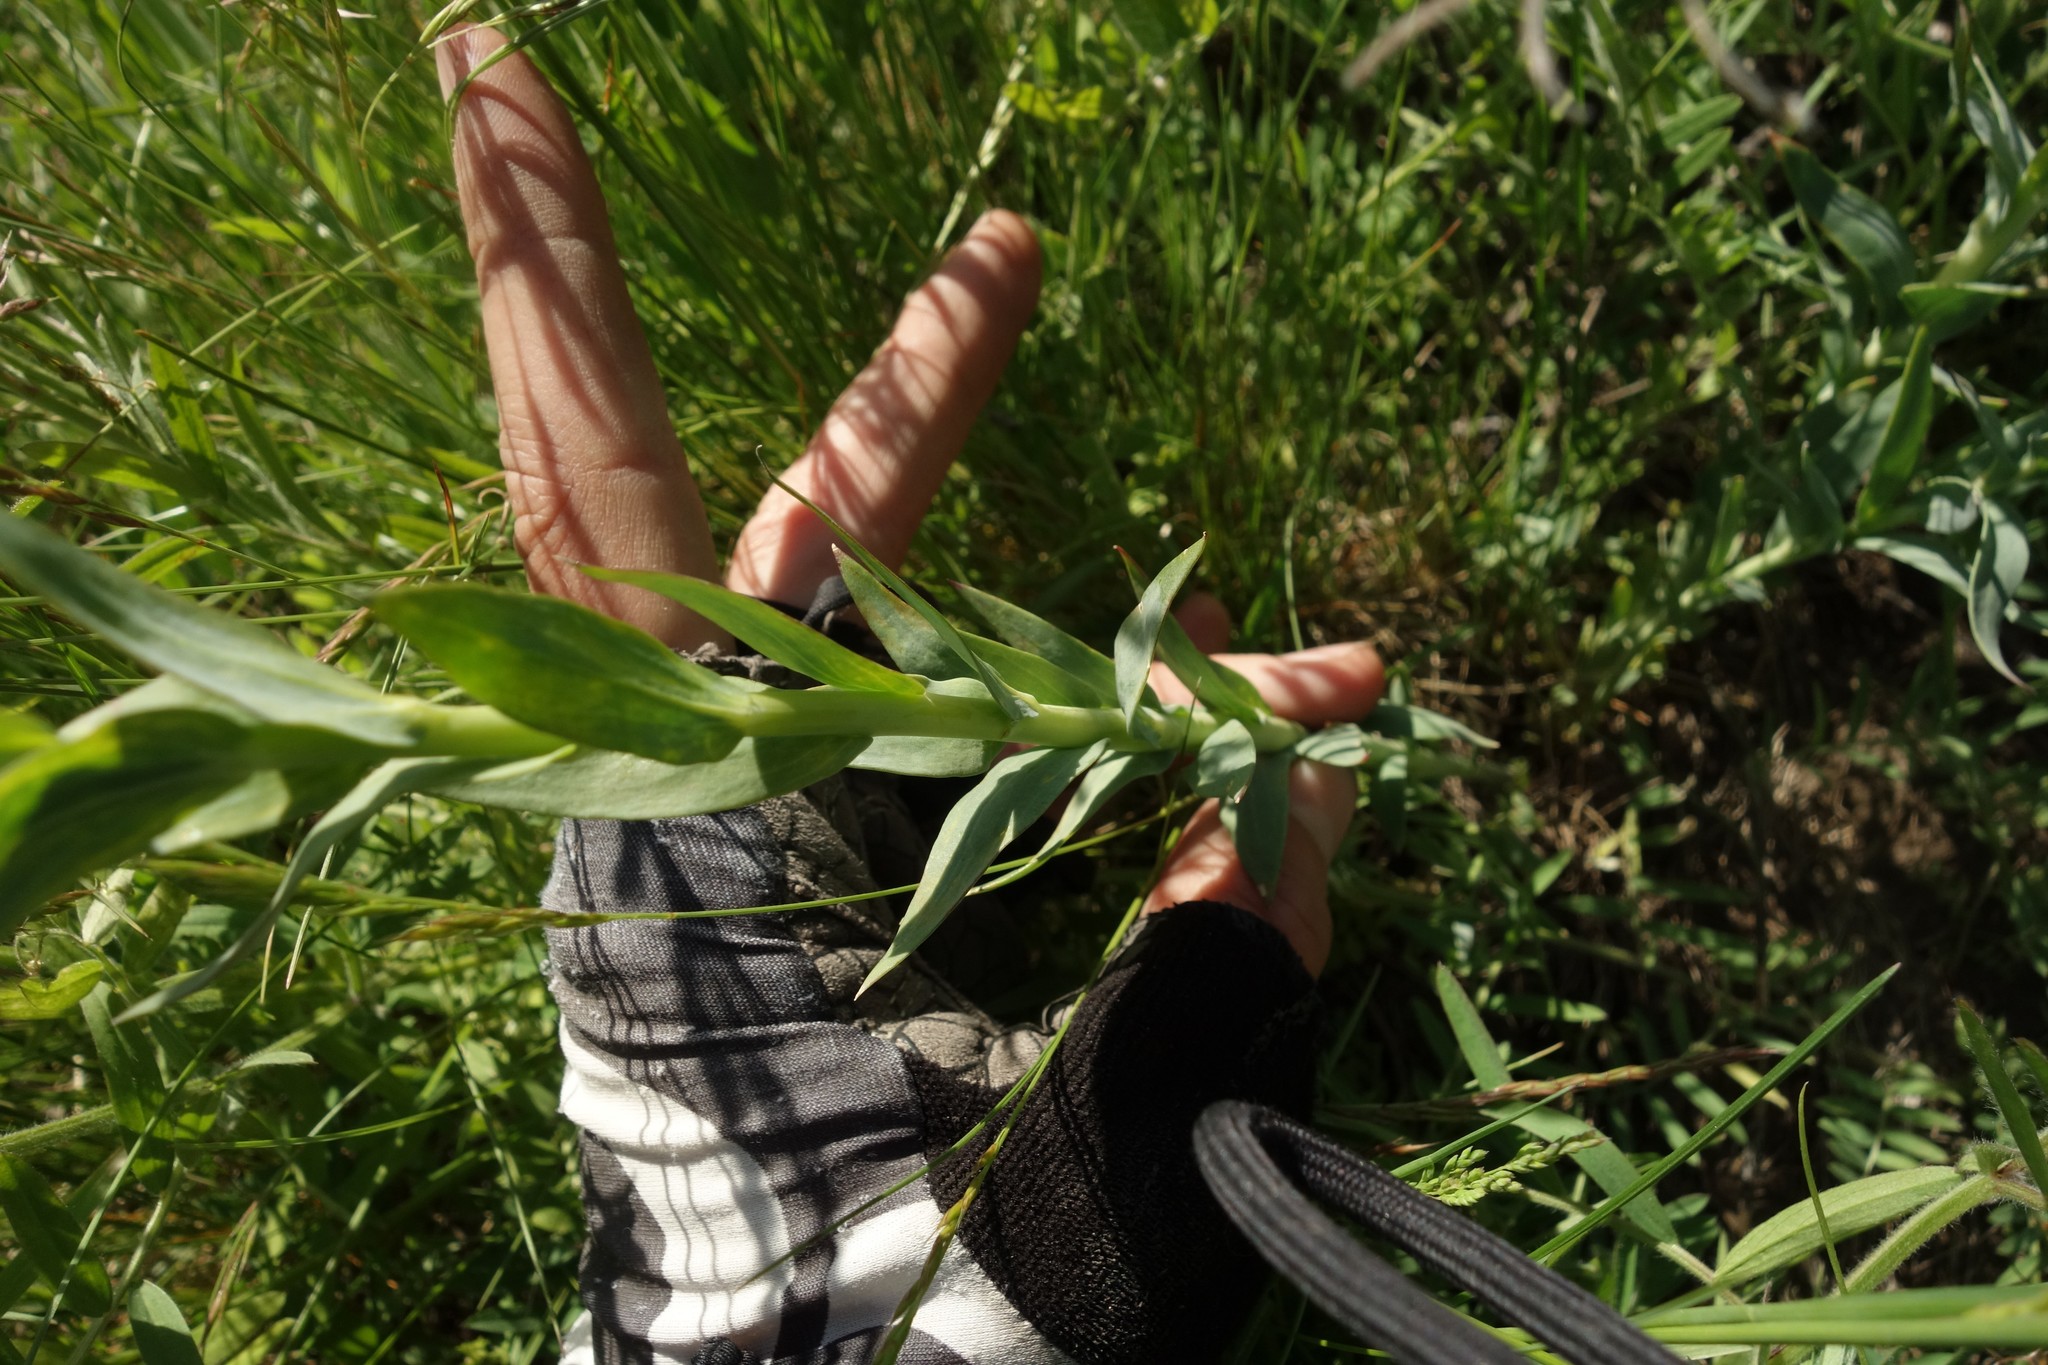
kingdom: Plantae
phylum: Tracheophyta
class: Magnoliopsida
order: Lamiales
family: Plantaginaceae
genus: Linaria
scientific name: Linaria genistifolia
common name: Broomleaf toadflax
